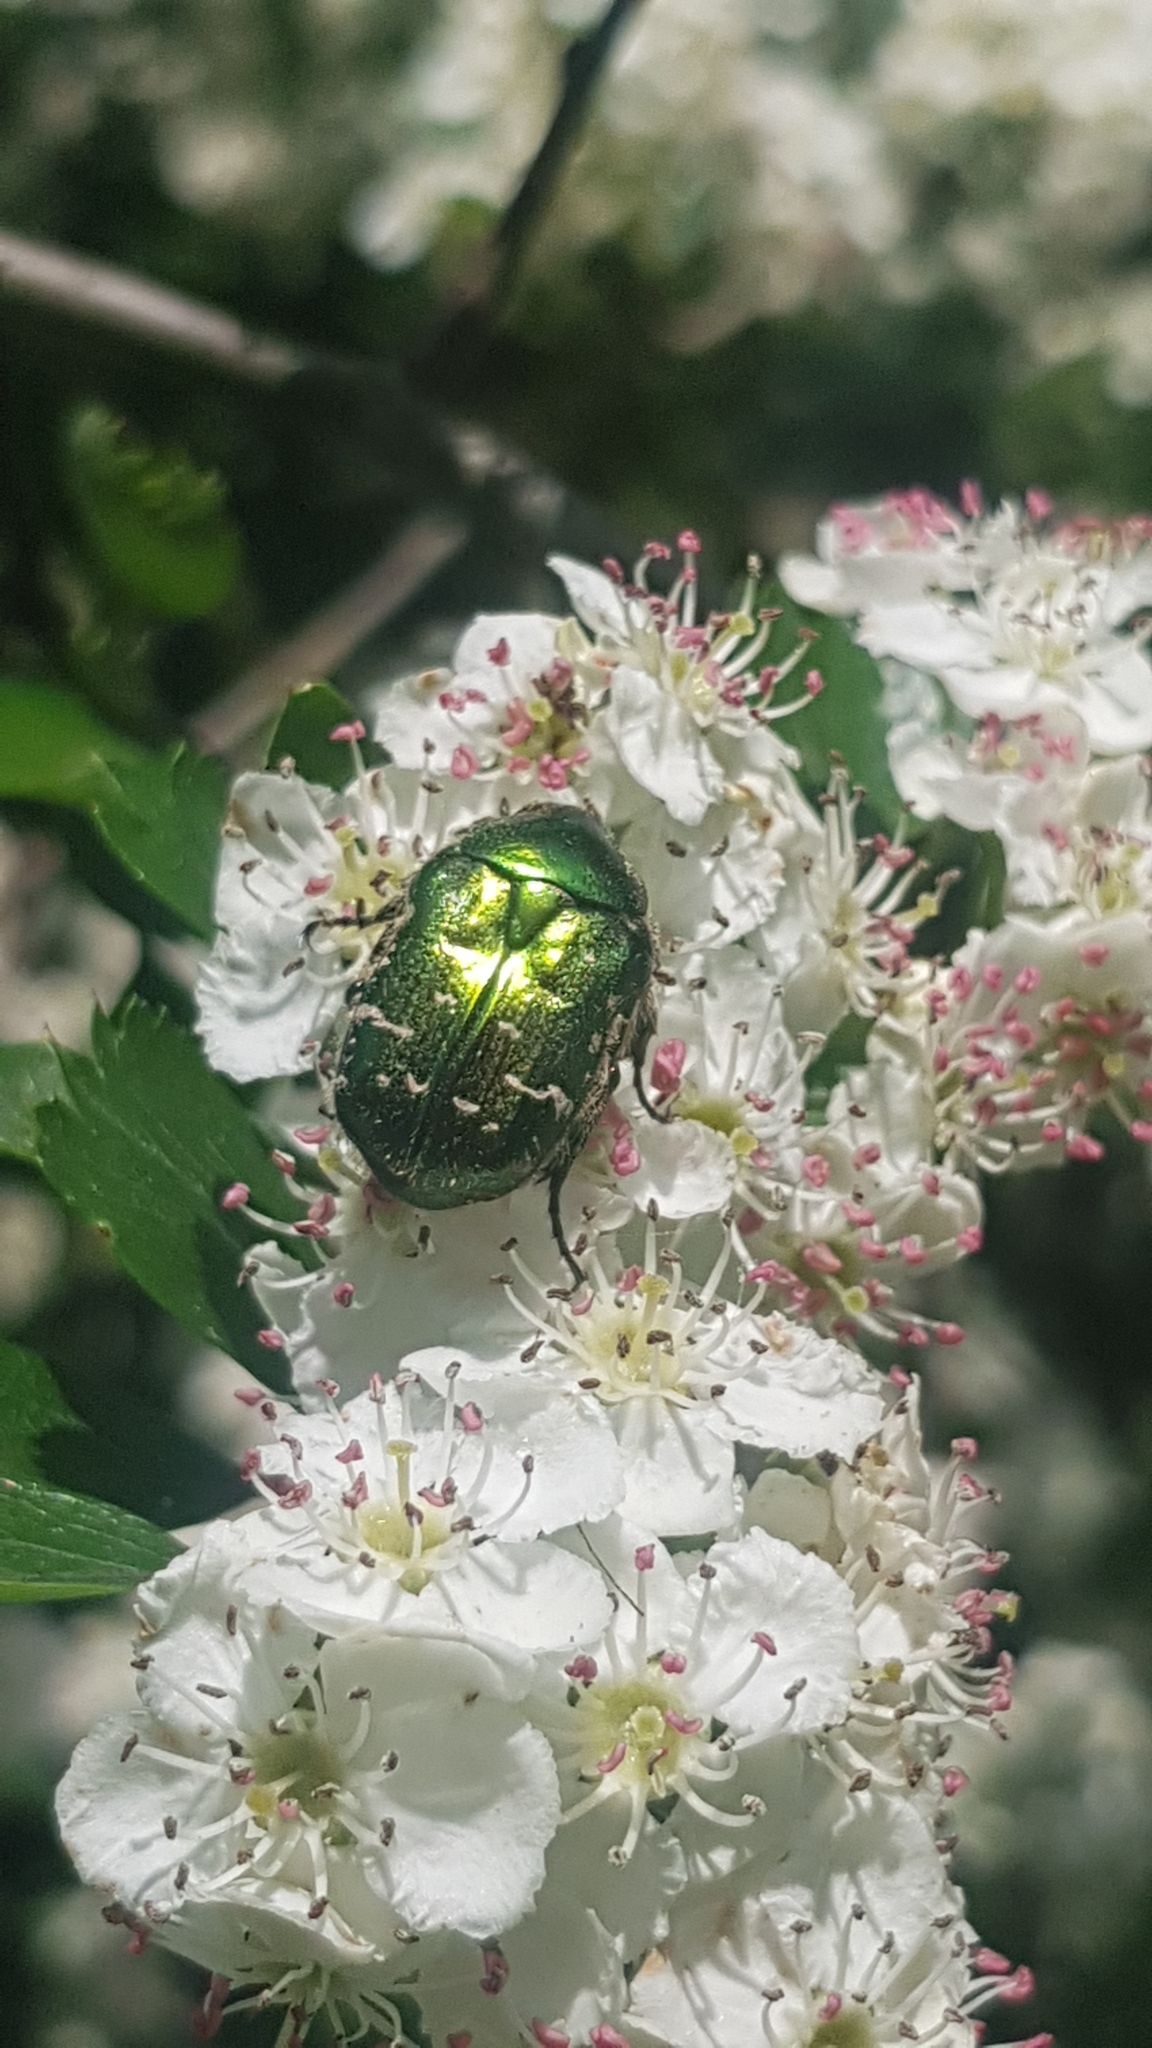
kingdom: Animalia
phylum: Arthropoda
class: Insecta
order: Coleoptera
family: Scarabaeidae
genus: Cetonia
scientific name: Cetonia aurata
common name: Rose chafer
